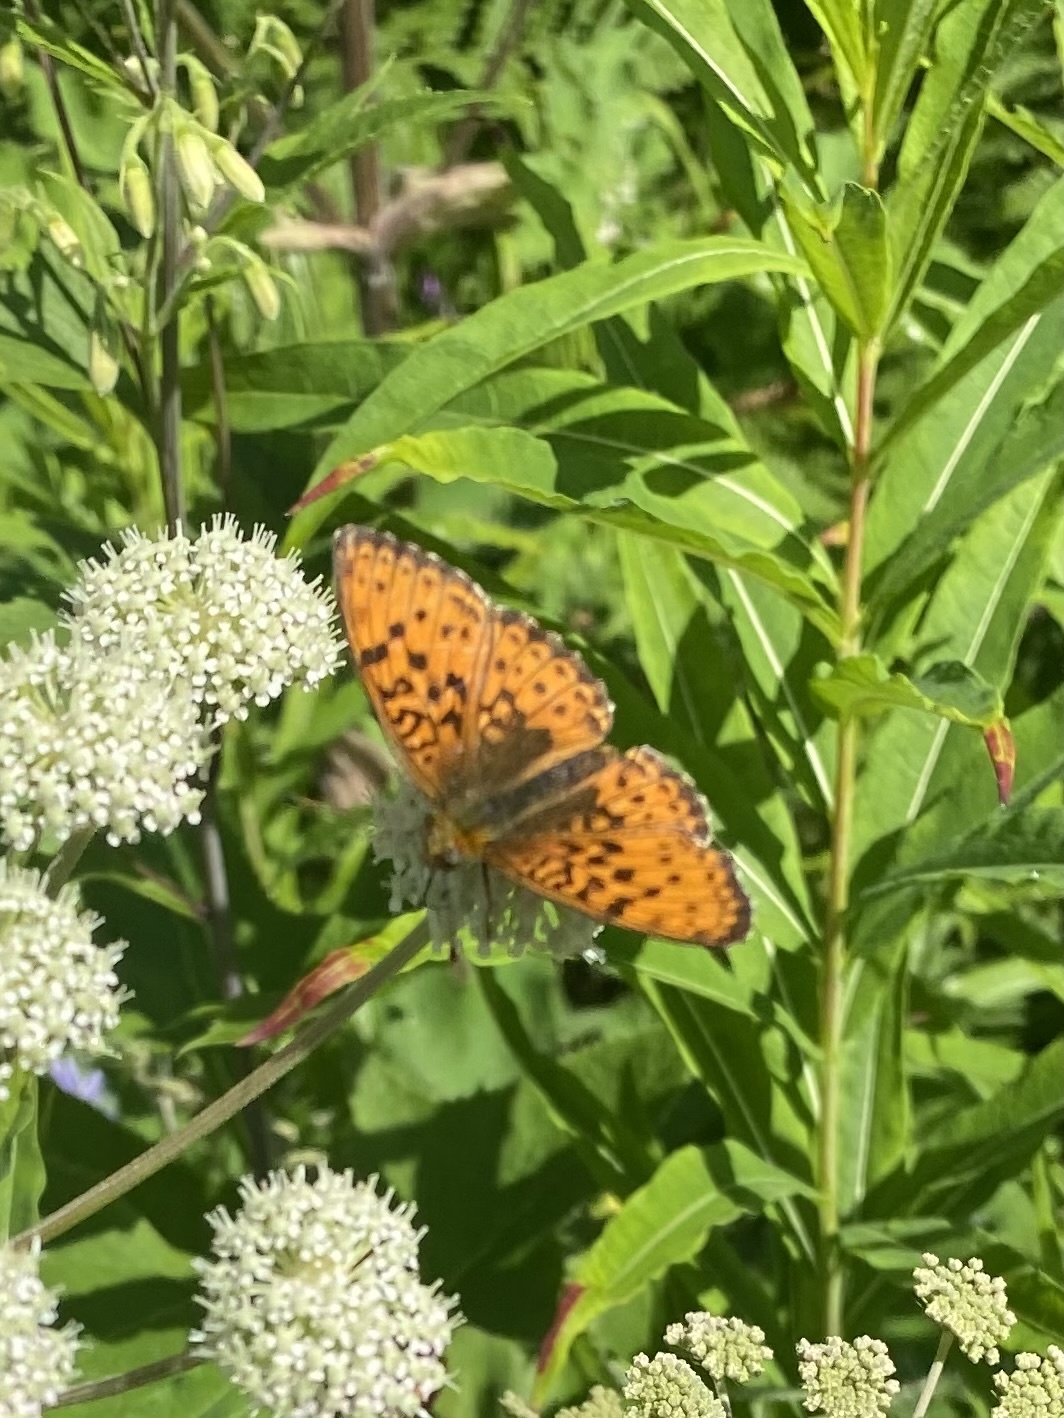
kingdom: Animalia
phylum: Arthropoda
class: Insecta
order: Lepidoptera
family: Nymphalidae
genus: Brenthis
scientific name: Brenthis ino
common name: Lesser marbled fritillary
